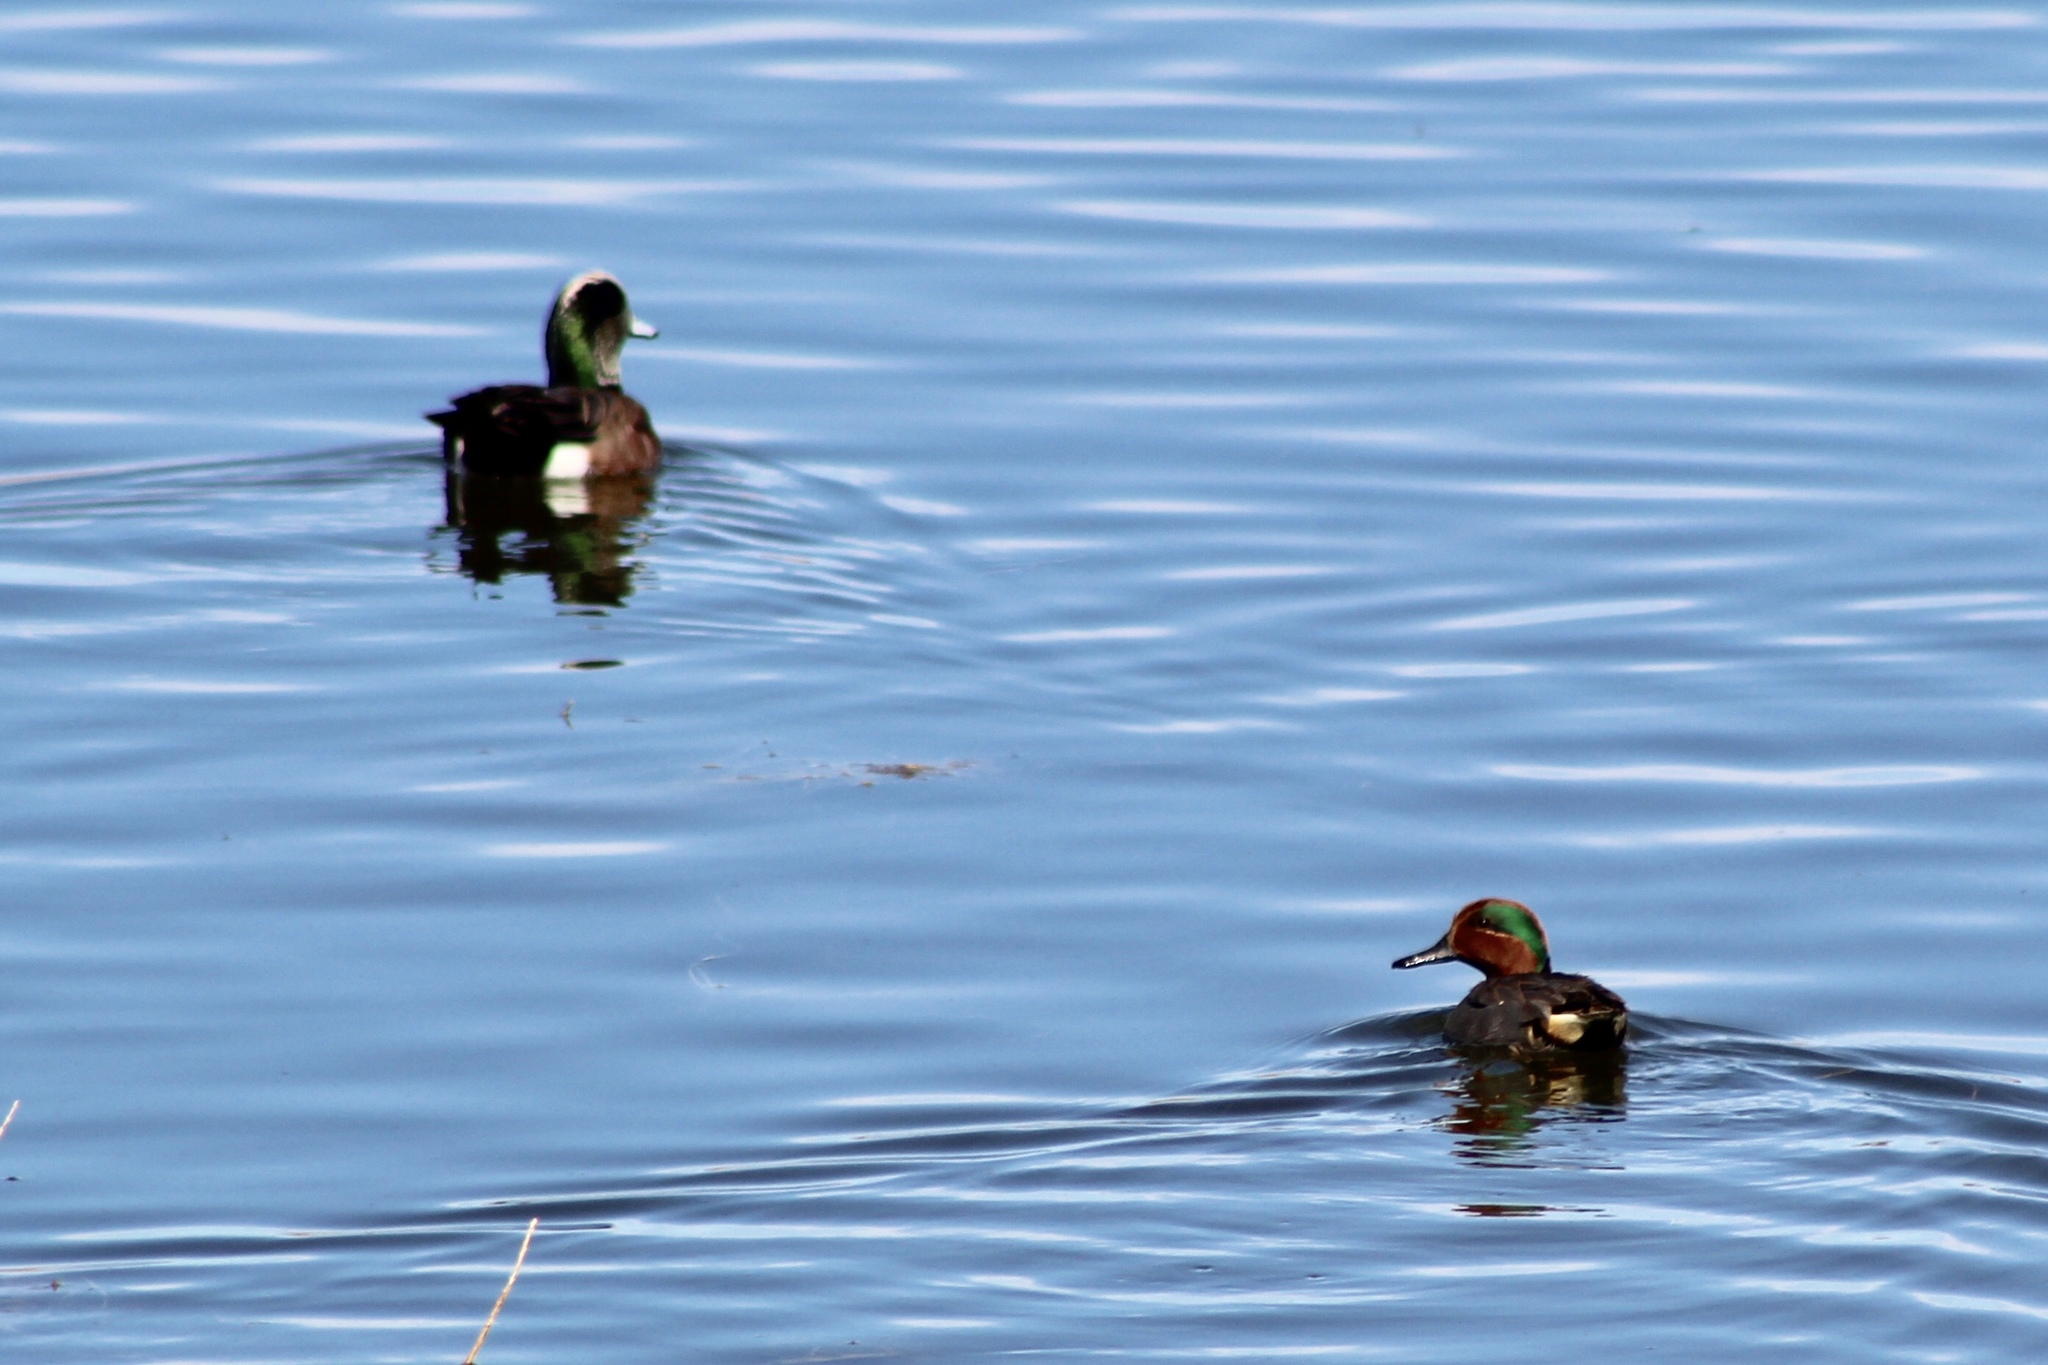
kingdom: Animalia
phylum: Chordata
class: Aves
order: Anseriformes
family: Anatidae
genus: Mareca
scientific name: Mareca americana
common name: American wigeon
